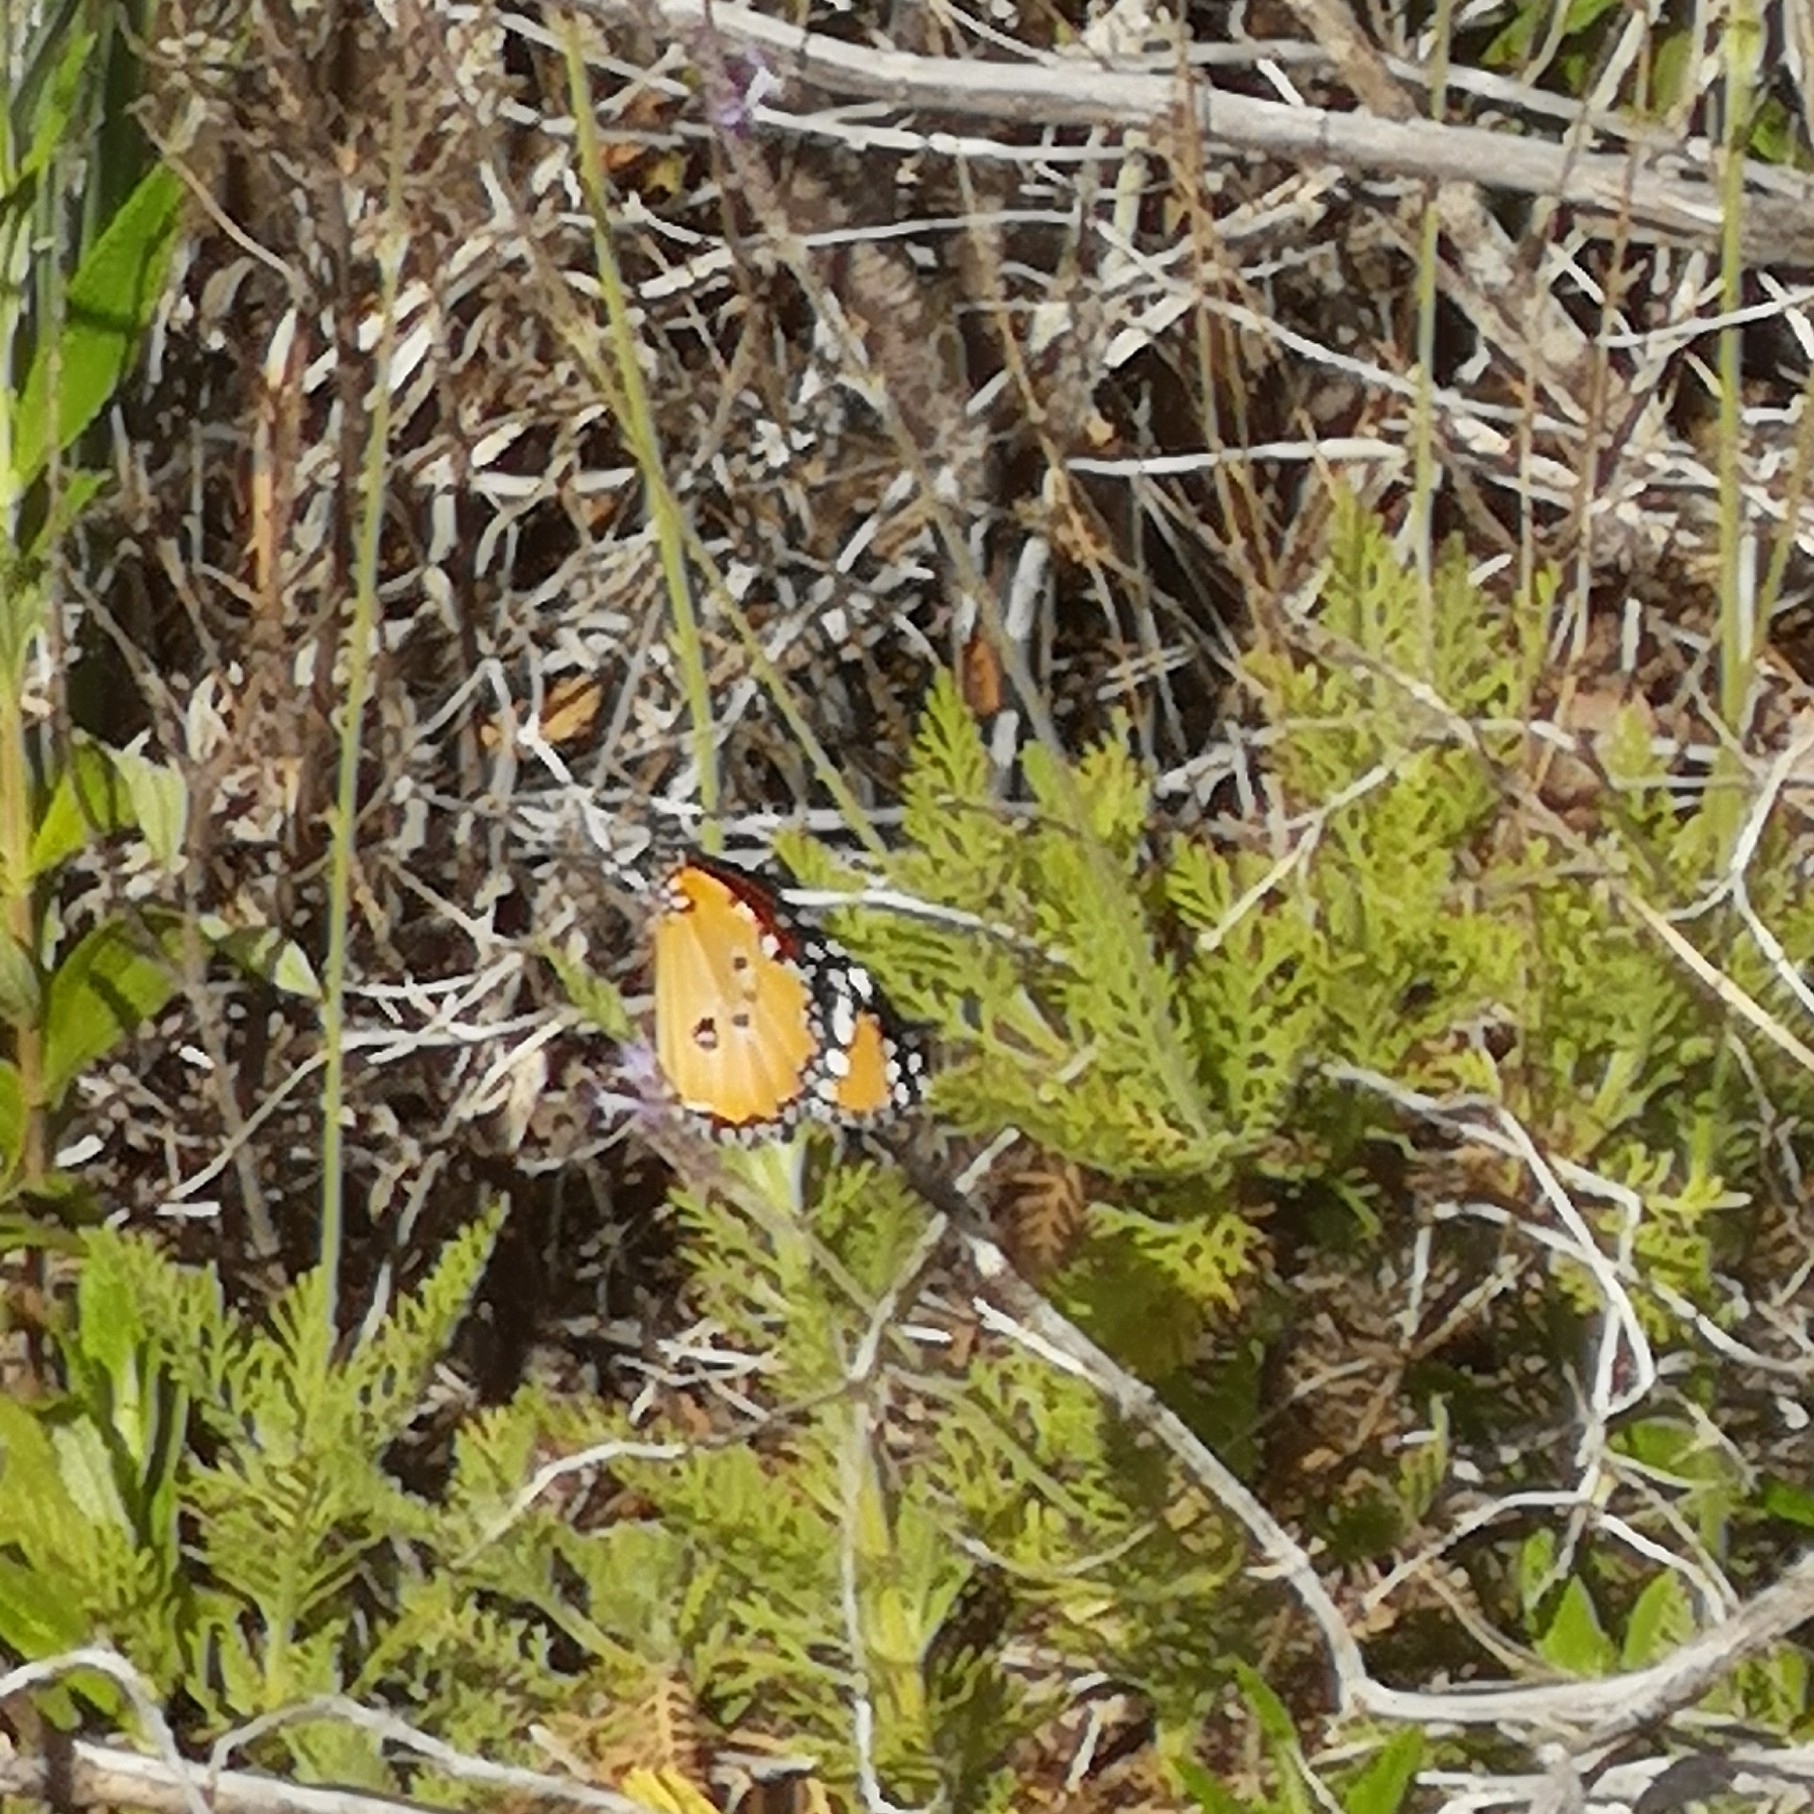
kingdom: Animalia
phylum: Arthropoda
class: Insecta
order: Lepidoptera
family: Nymphalidae
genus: Danaus
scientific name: Danaus chrysippus
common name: Plain tiger
